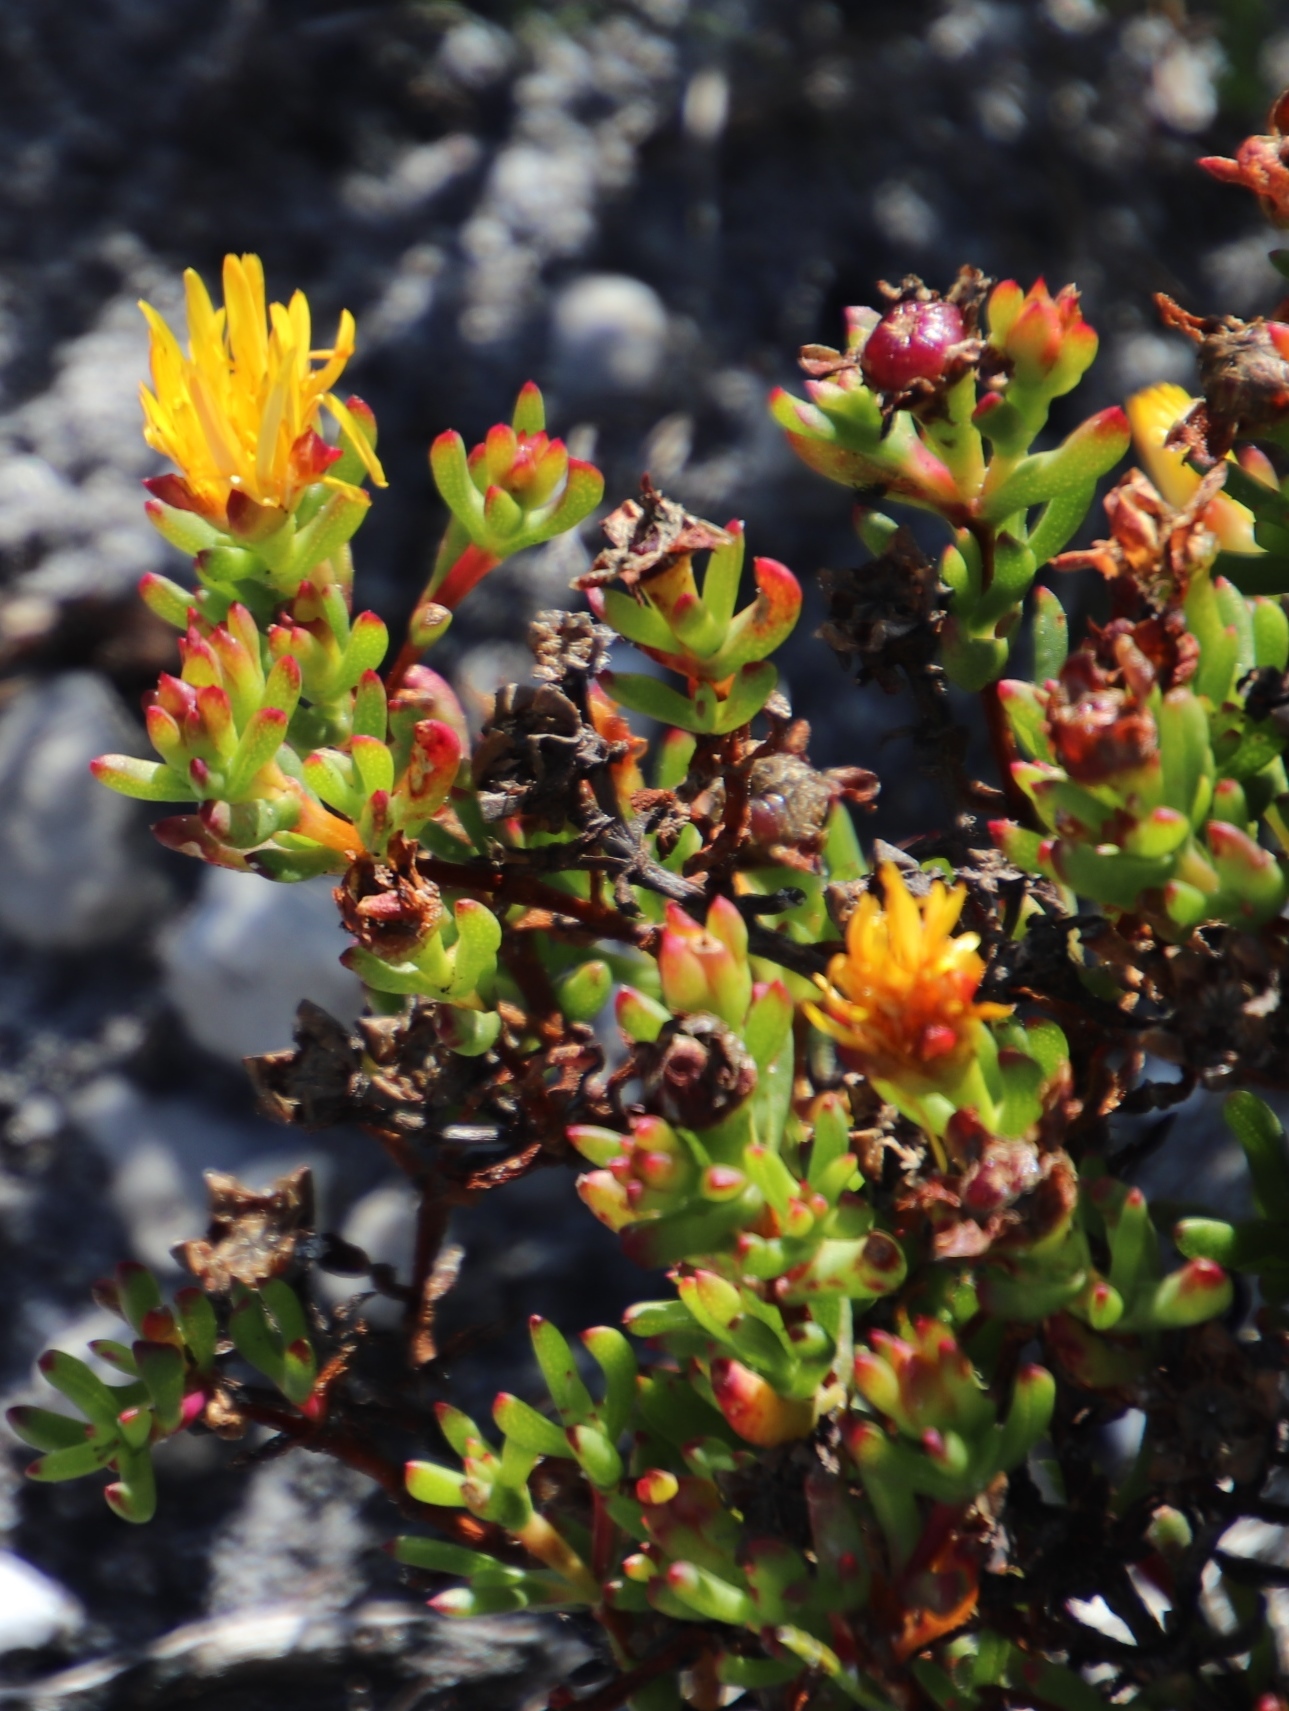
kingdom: Plantae
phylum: Tracheophyta
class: Magnoliopsida
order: Caryophyllales
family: Aizoaceae
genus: Lampranthus
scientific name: Lampranthus promontorii
